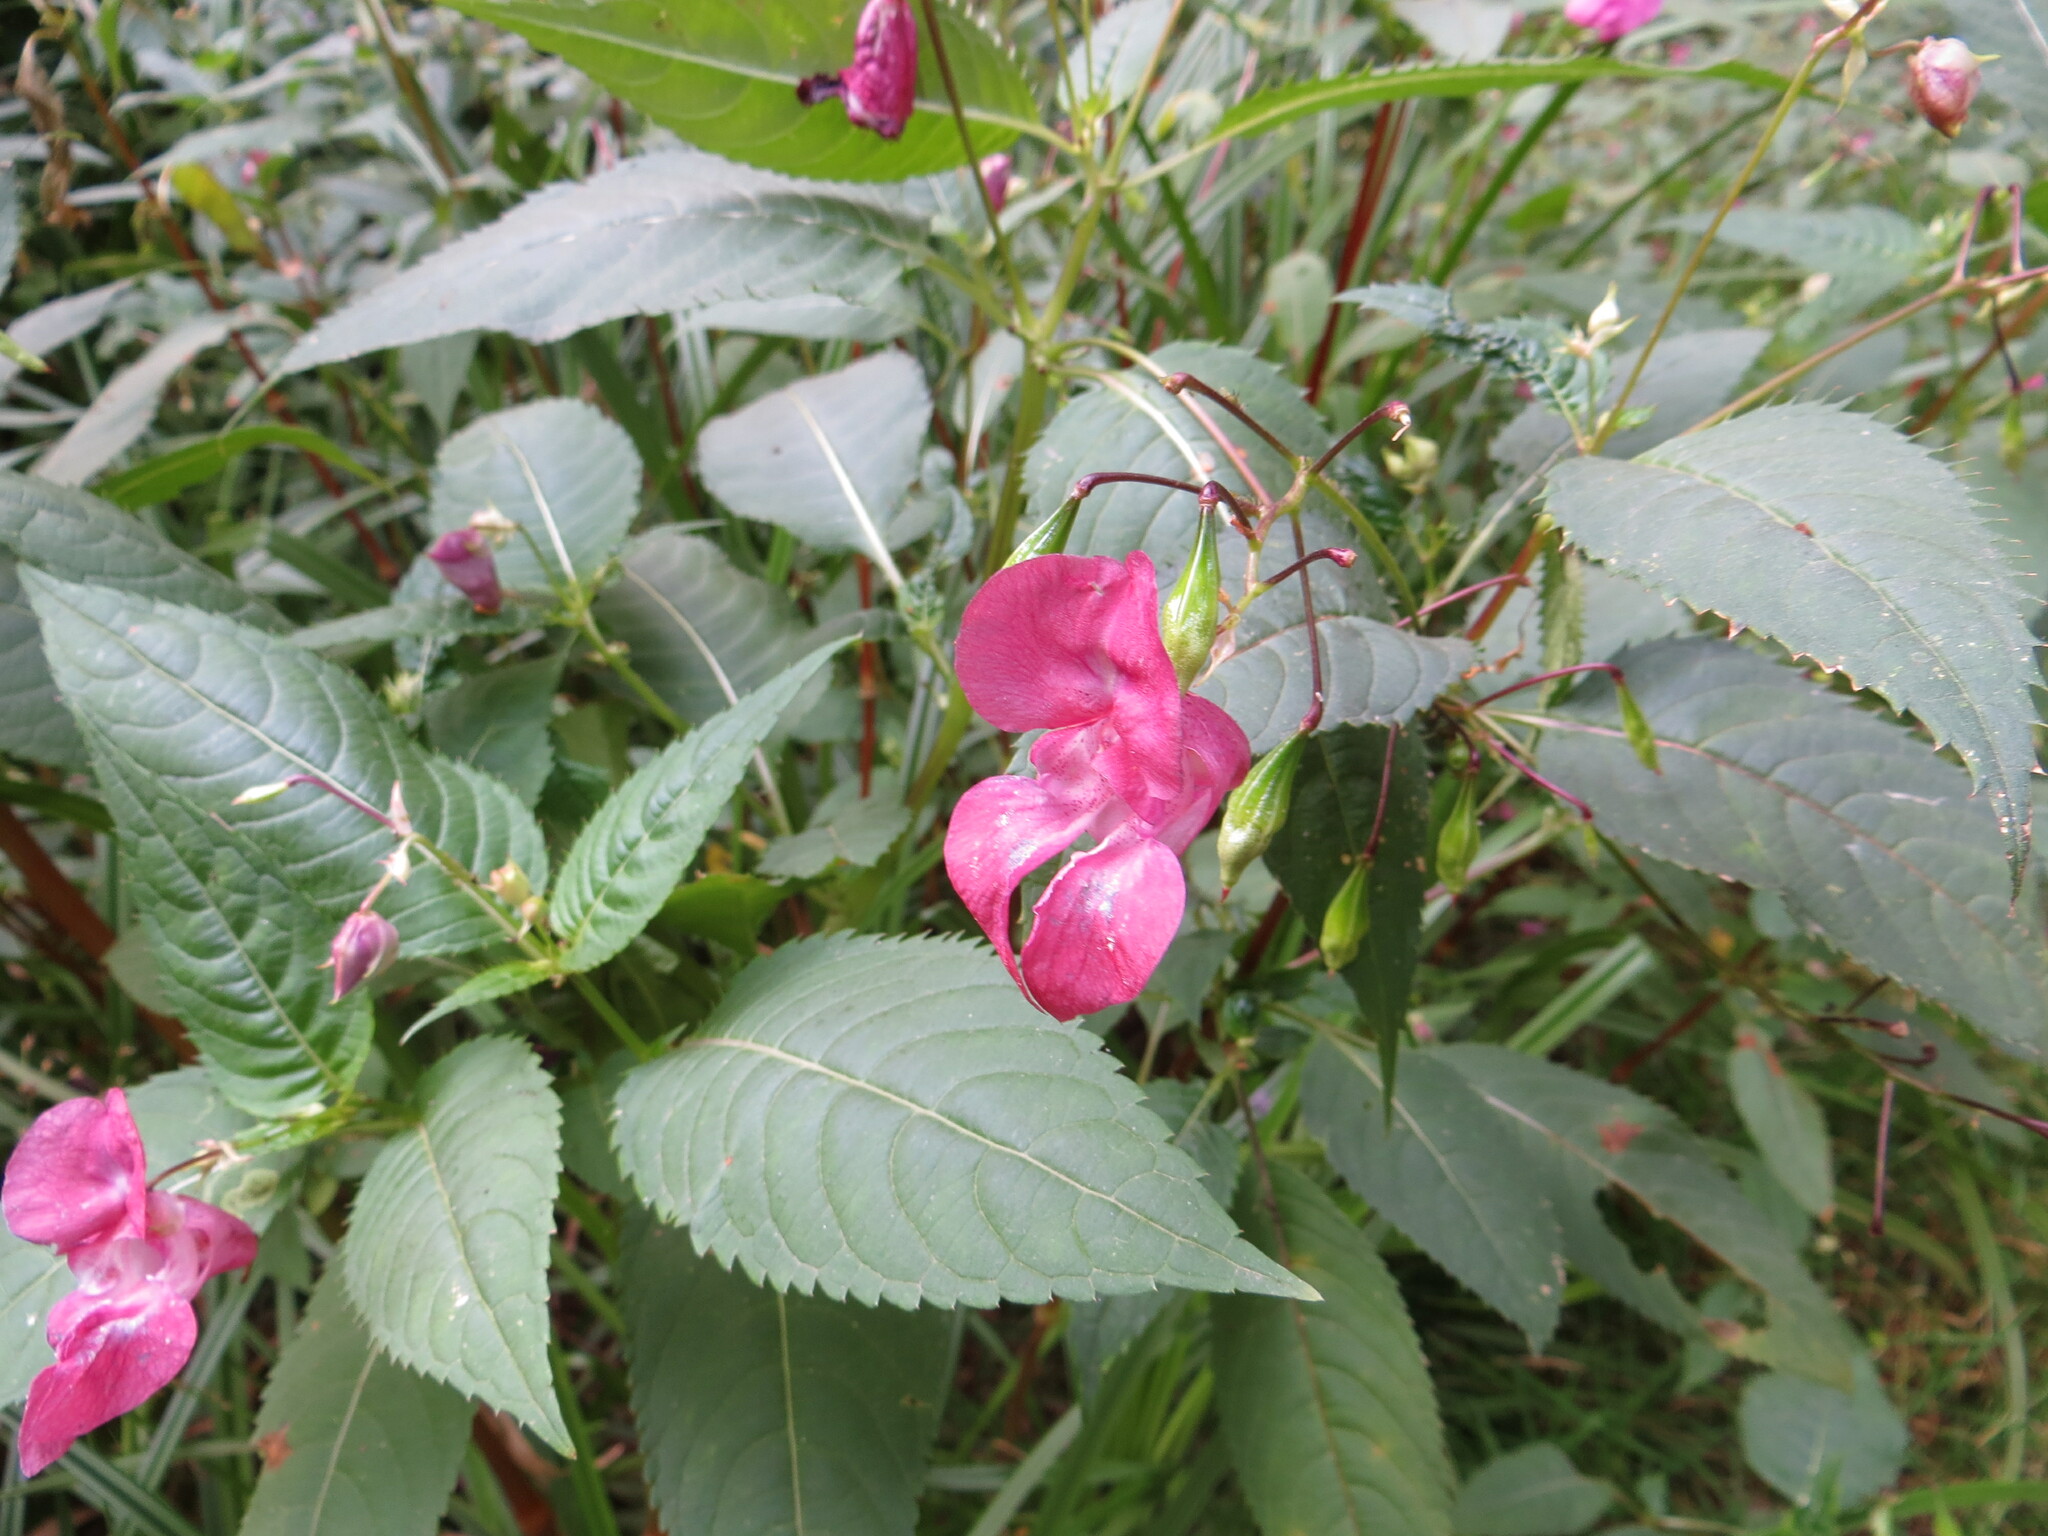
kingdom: Plantae
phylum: Tracheophyta
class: Magnoliopsida
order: Ericales
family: Balsaminaceae
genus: Impatiens
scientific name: Impatiens glandulifera
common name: Himalayan balsam
